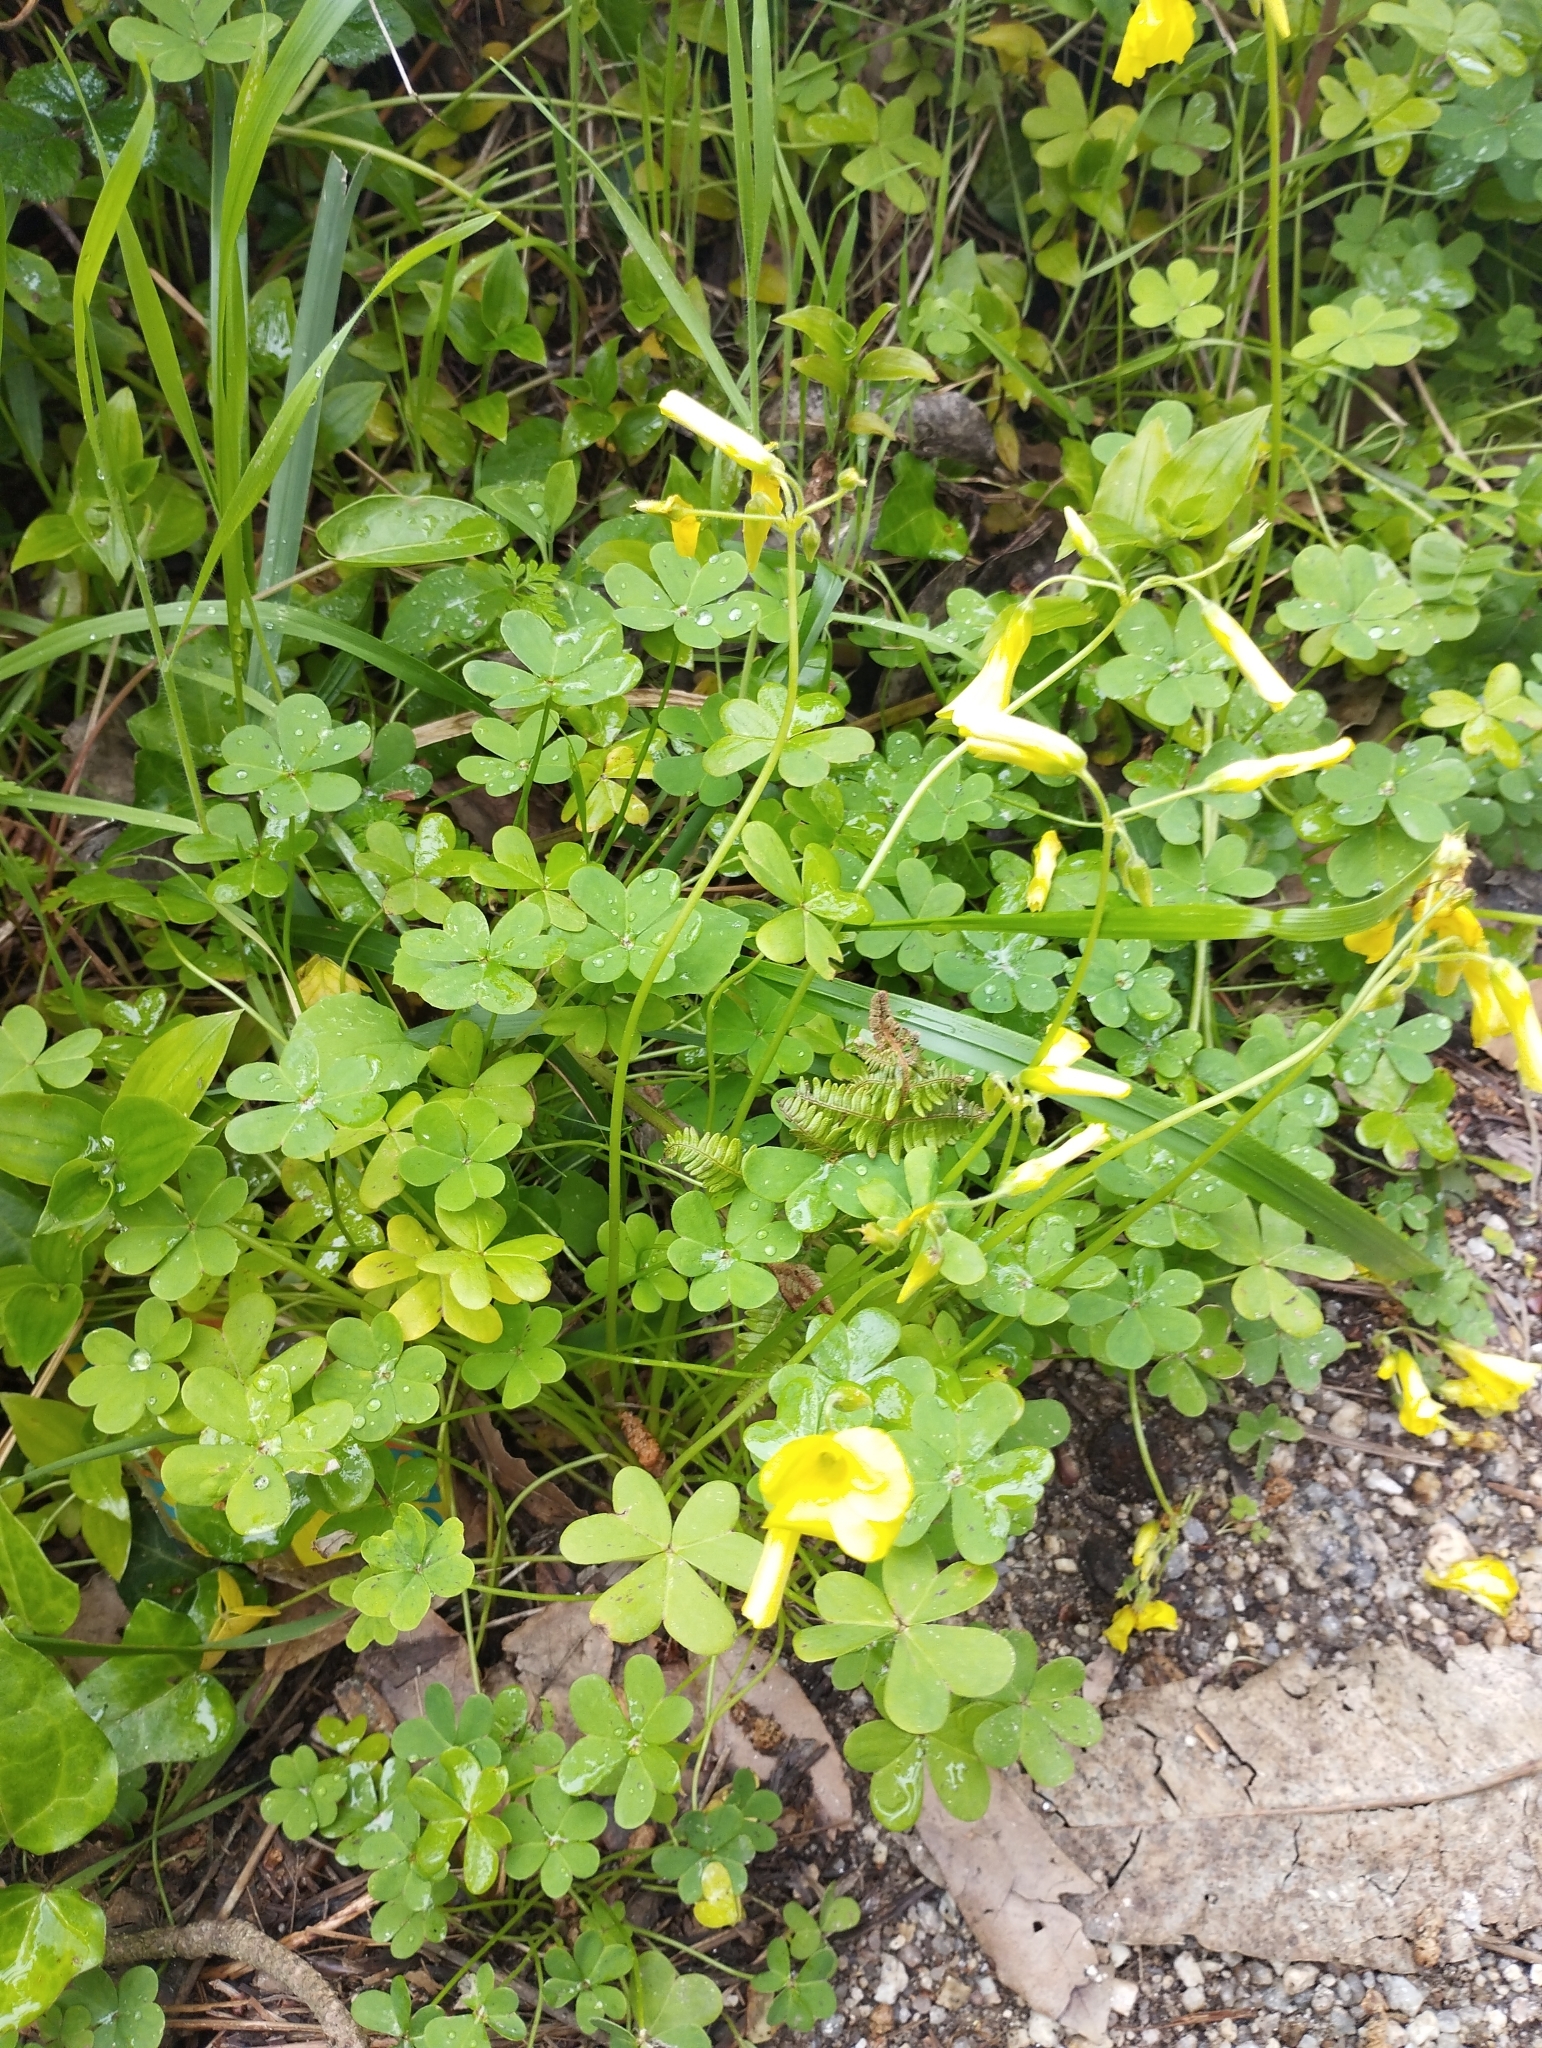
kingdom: Plantae
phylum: Tracheophyta
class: Magnoliopsida
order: Oxalidales
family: Oxalidaceae
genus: Oxalis
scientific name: Oxalis pes-caprae
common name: Bermuda-buttercup
